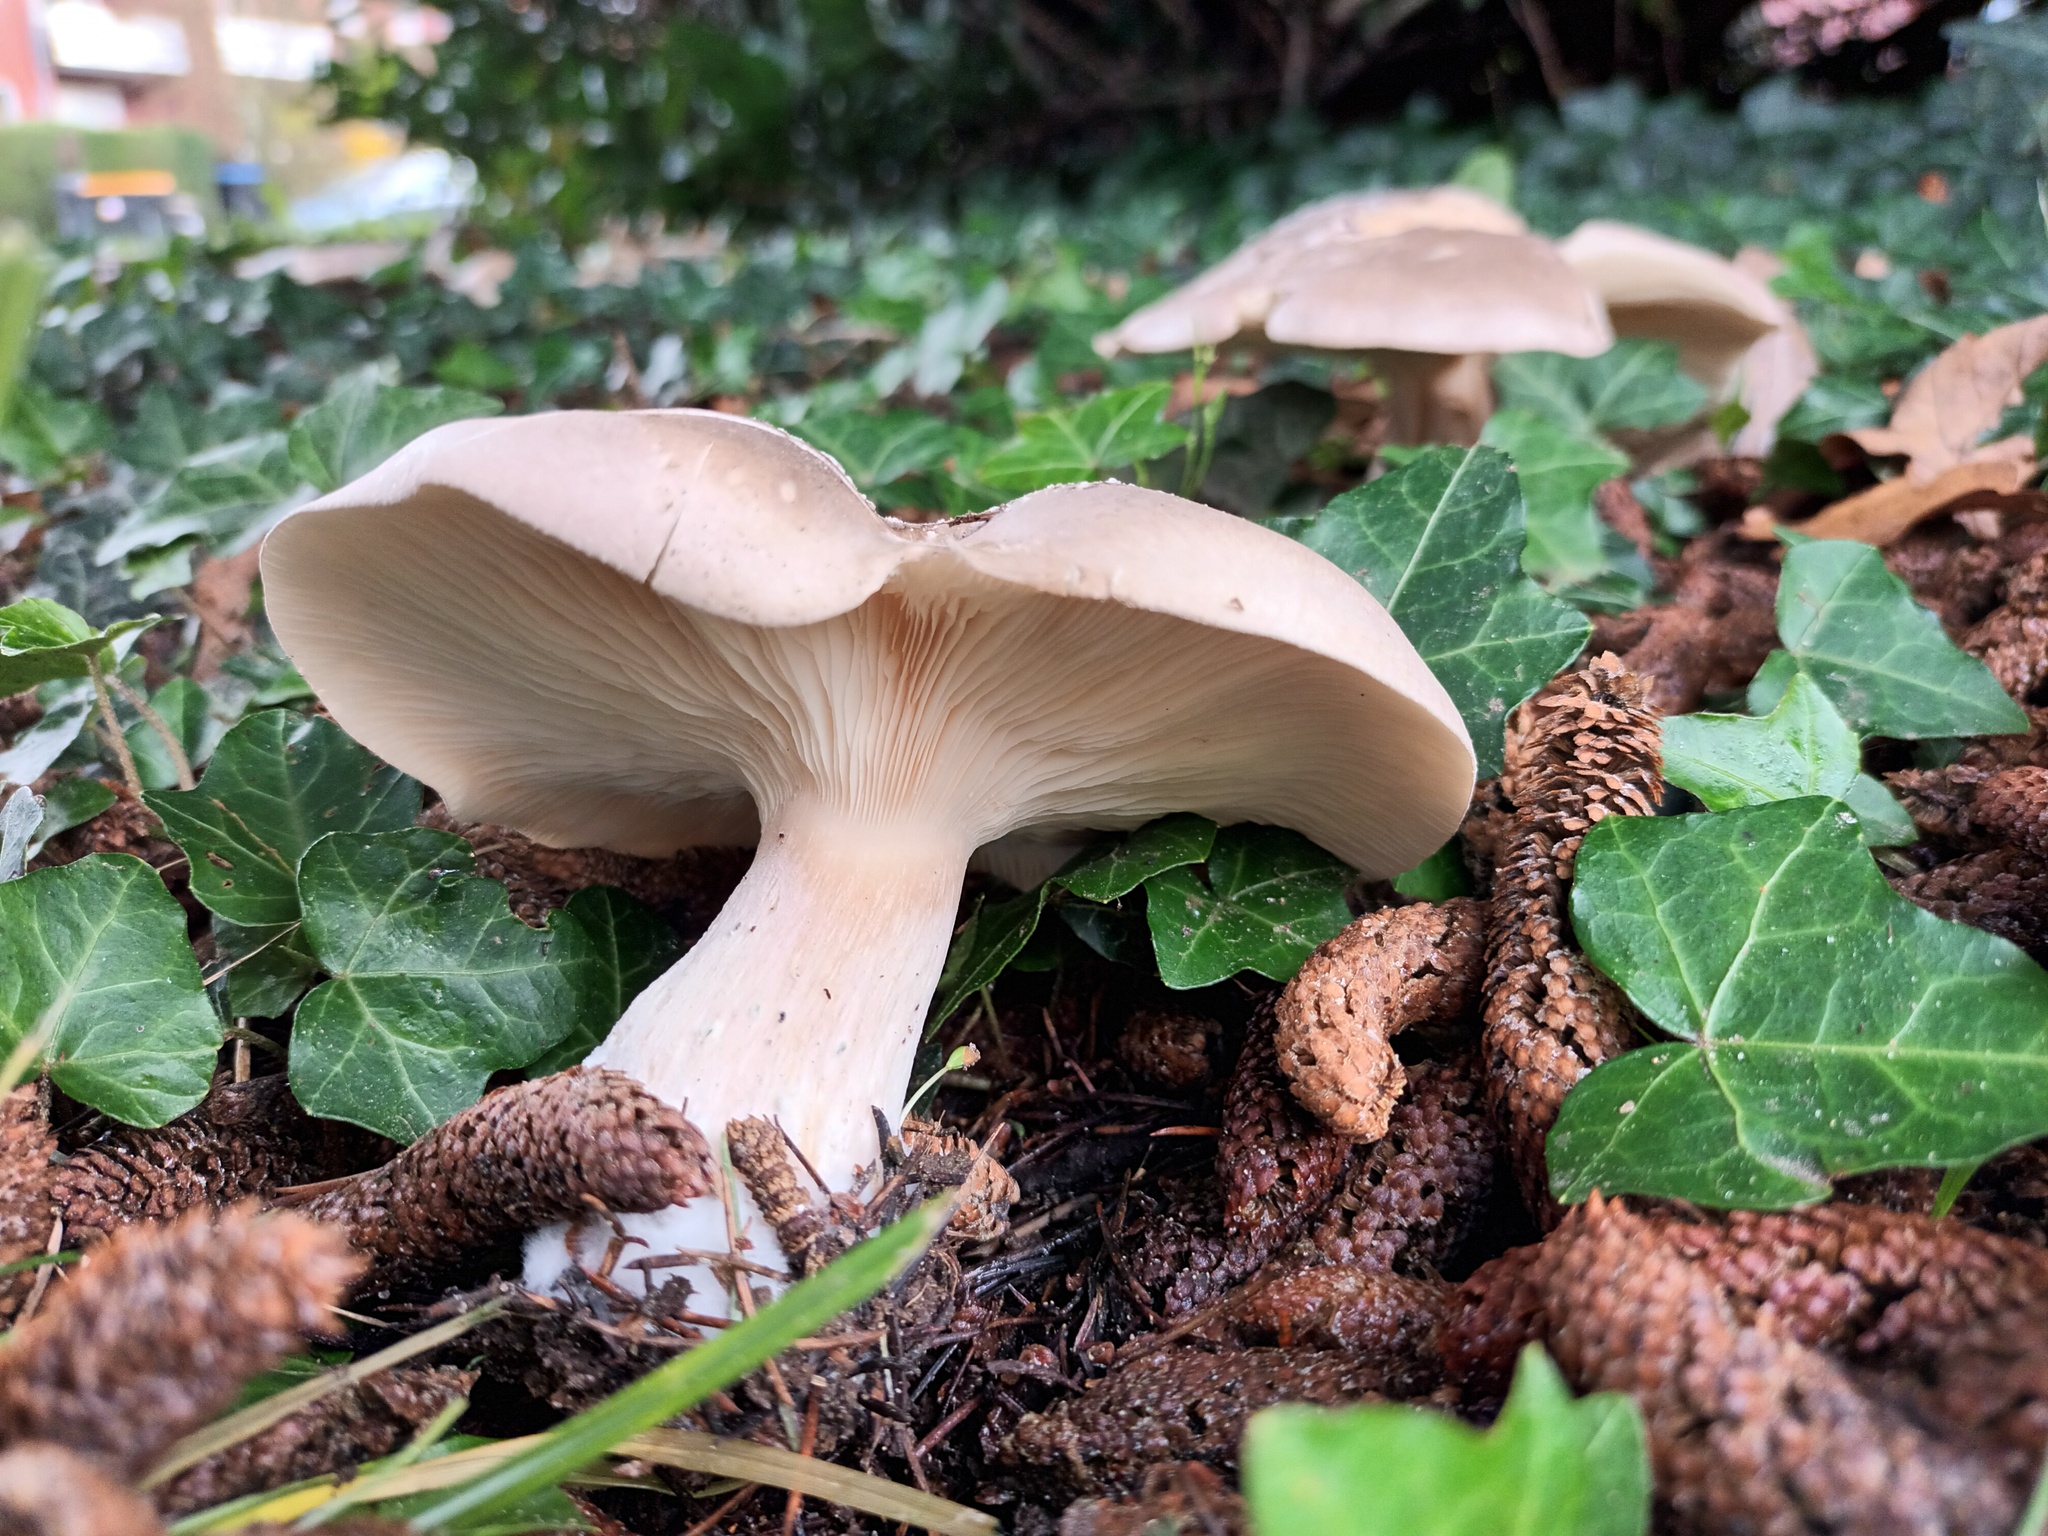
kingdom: Fungi
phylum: Basidiomycota
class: Agaricomycetes
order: Agaricales
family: Tricholomataceae
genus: Clitocybe
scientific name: Clitocybe nebularis
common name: Clouded agaric
